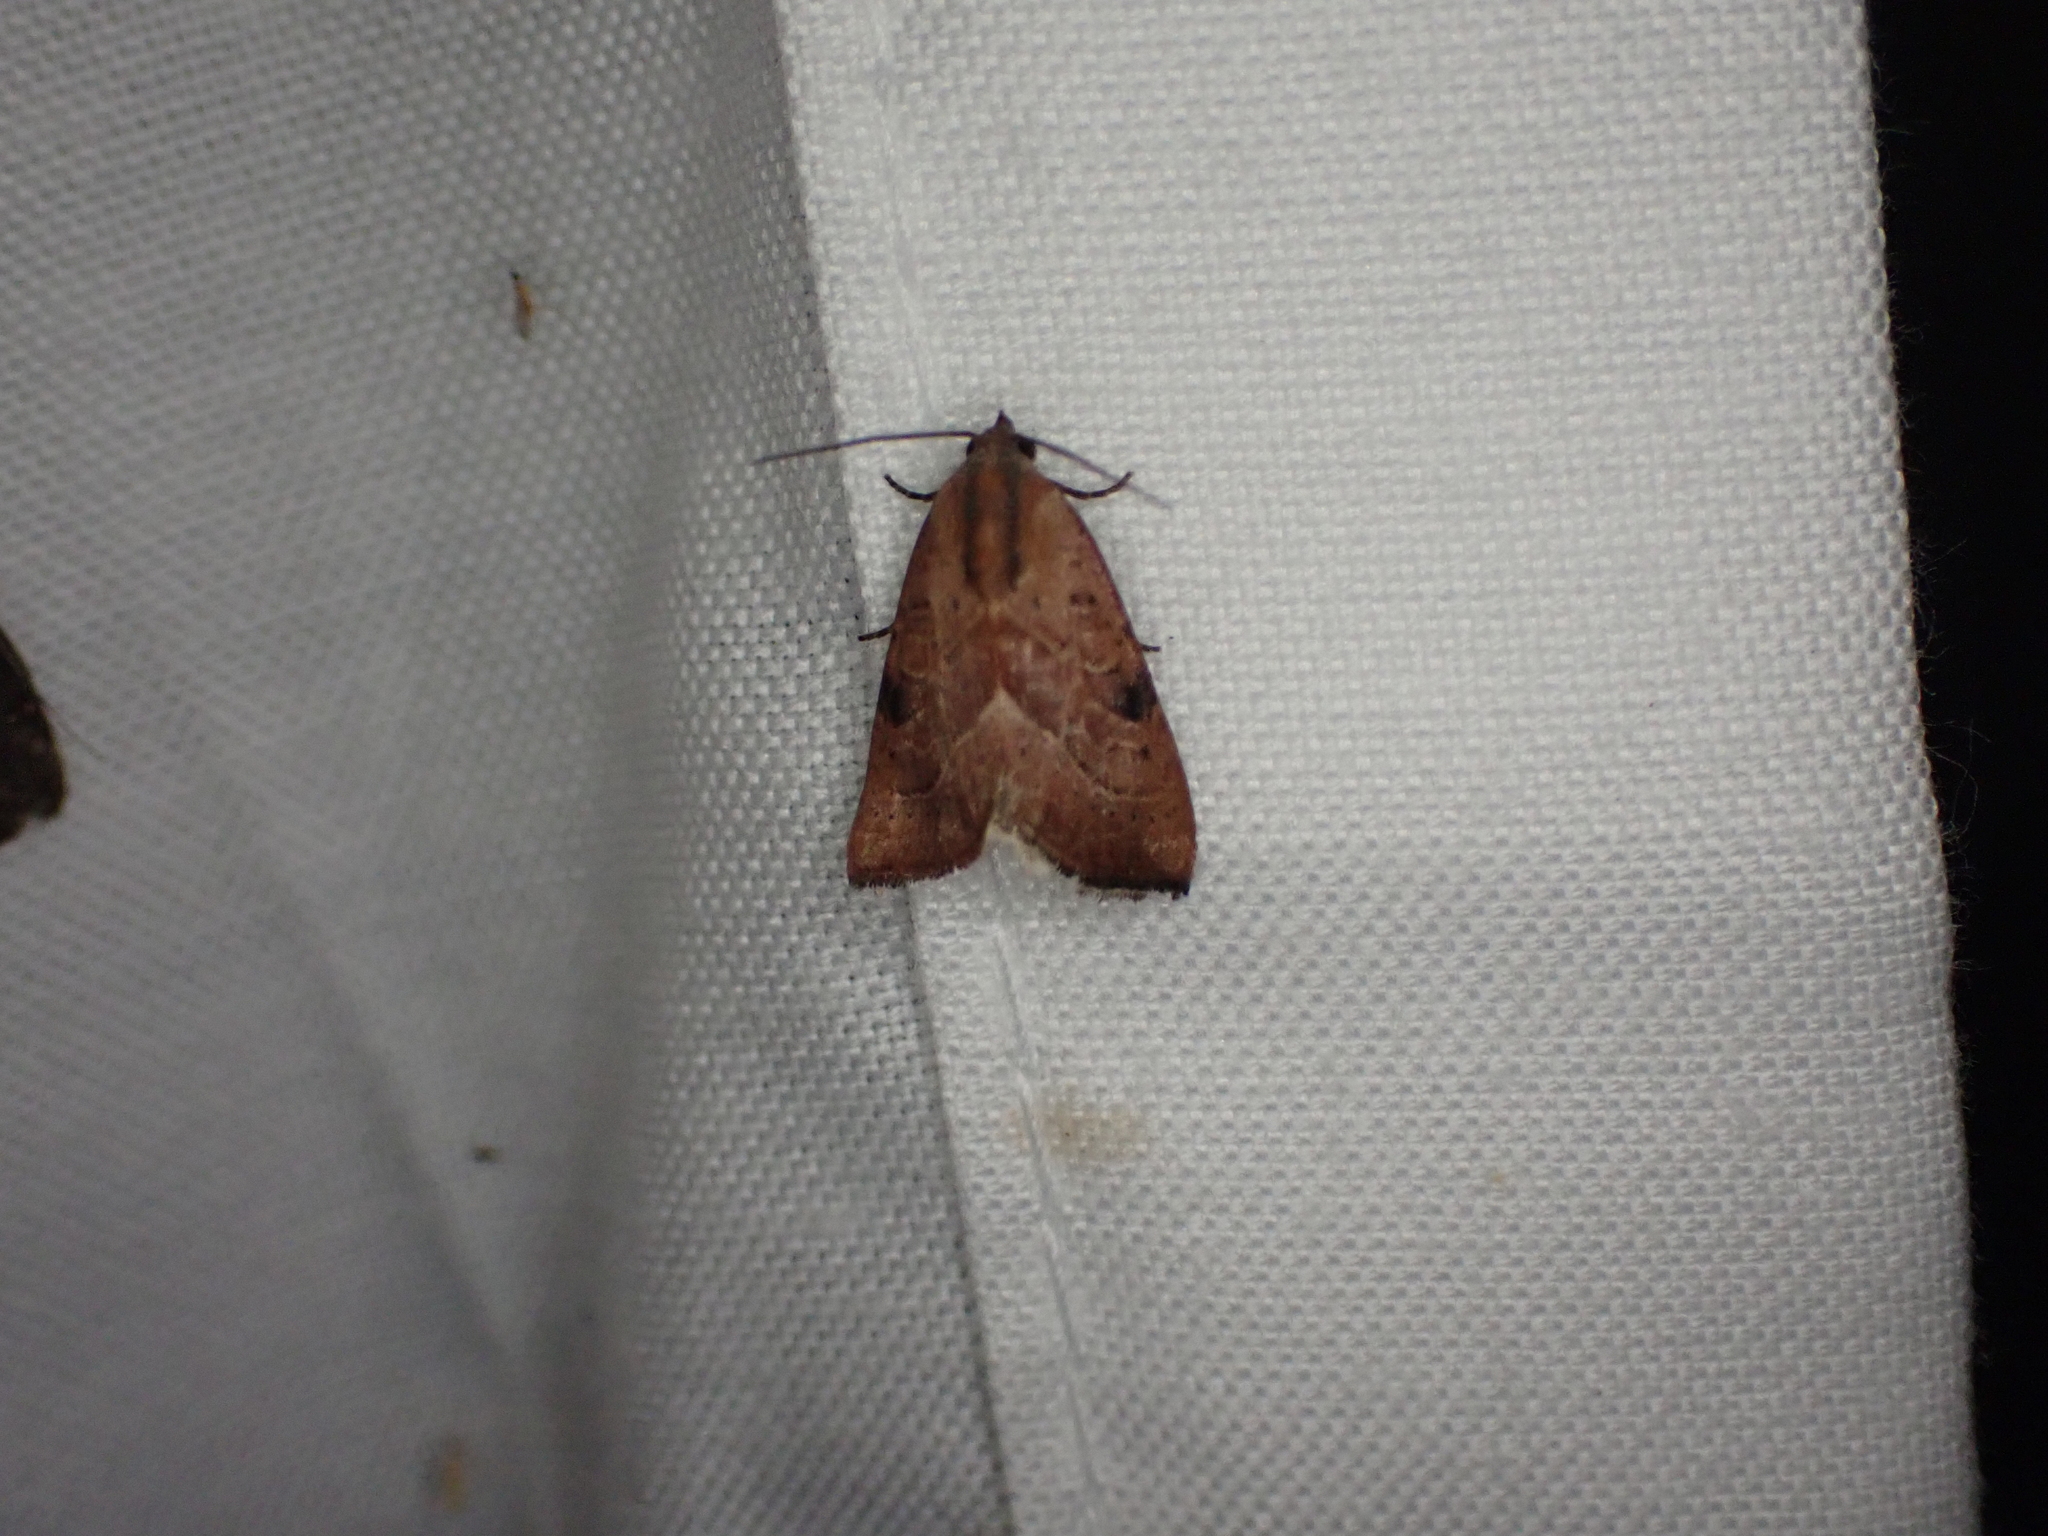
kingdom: Animalia
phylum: Arthropoda
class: Insecta
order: Lepidoptera
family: Noctuidae
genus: Galgula
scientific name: Galgula partita
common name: Wedgeling
